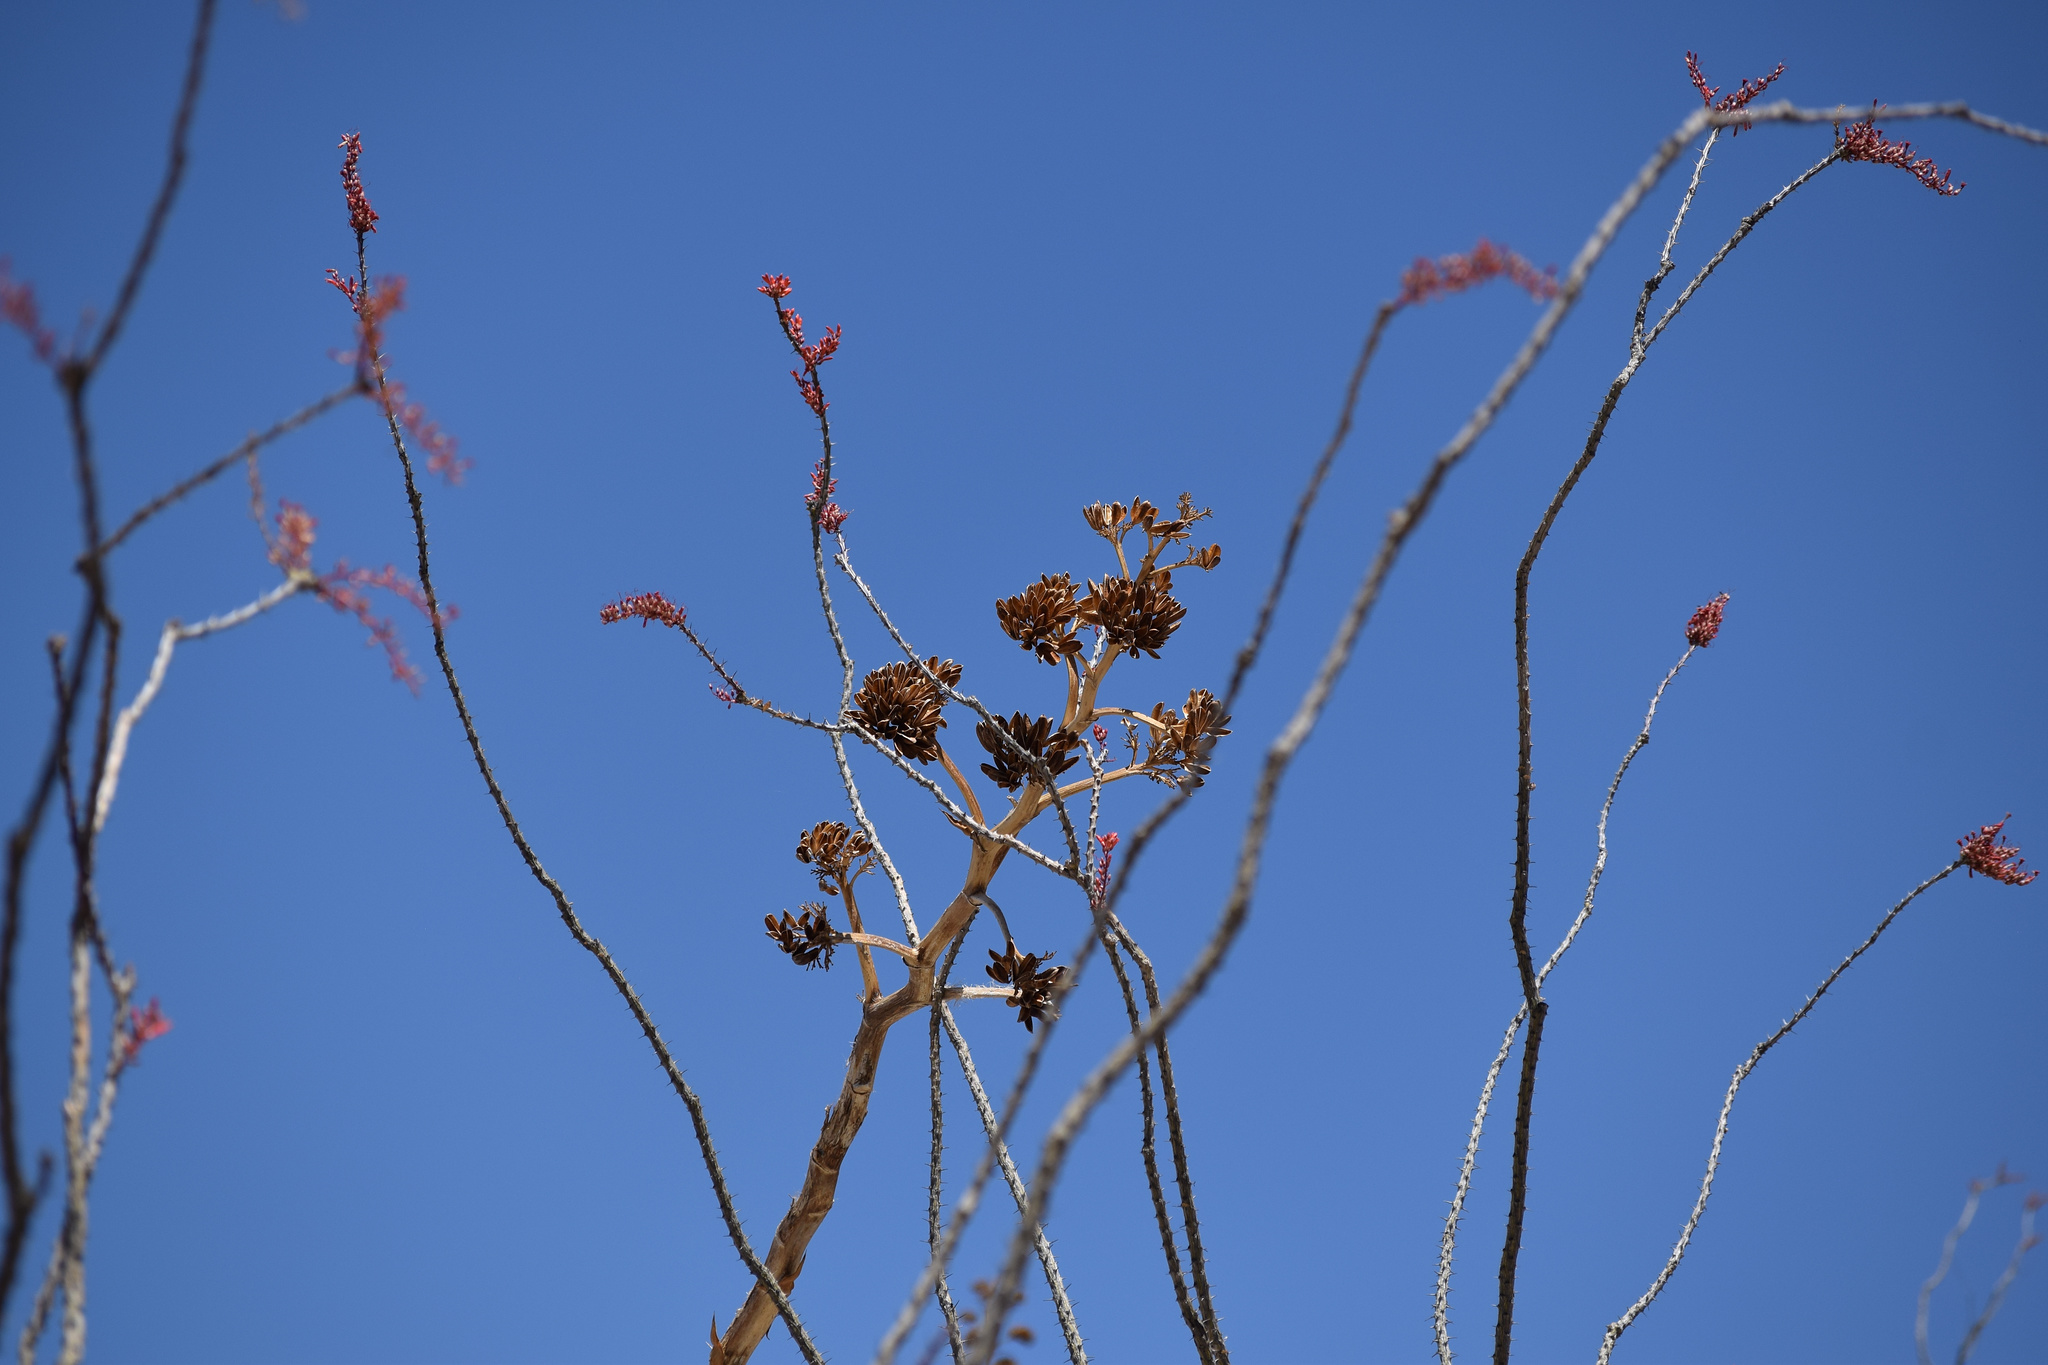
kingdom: Plantae
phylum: Tracheophyta
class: Liliopsida
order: Asparagales
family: Asparagaceae
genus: Agave
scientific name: Agave deserti
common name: Desert agave
